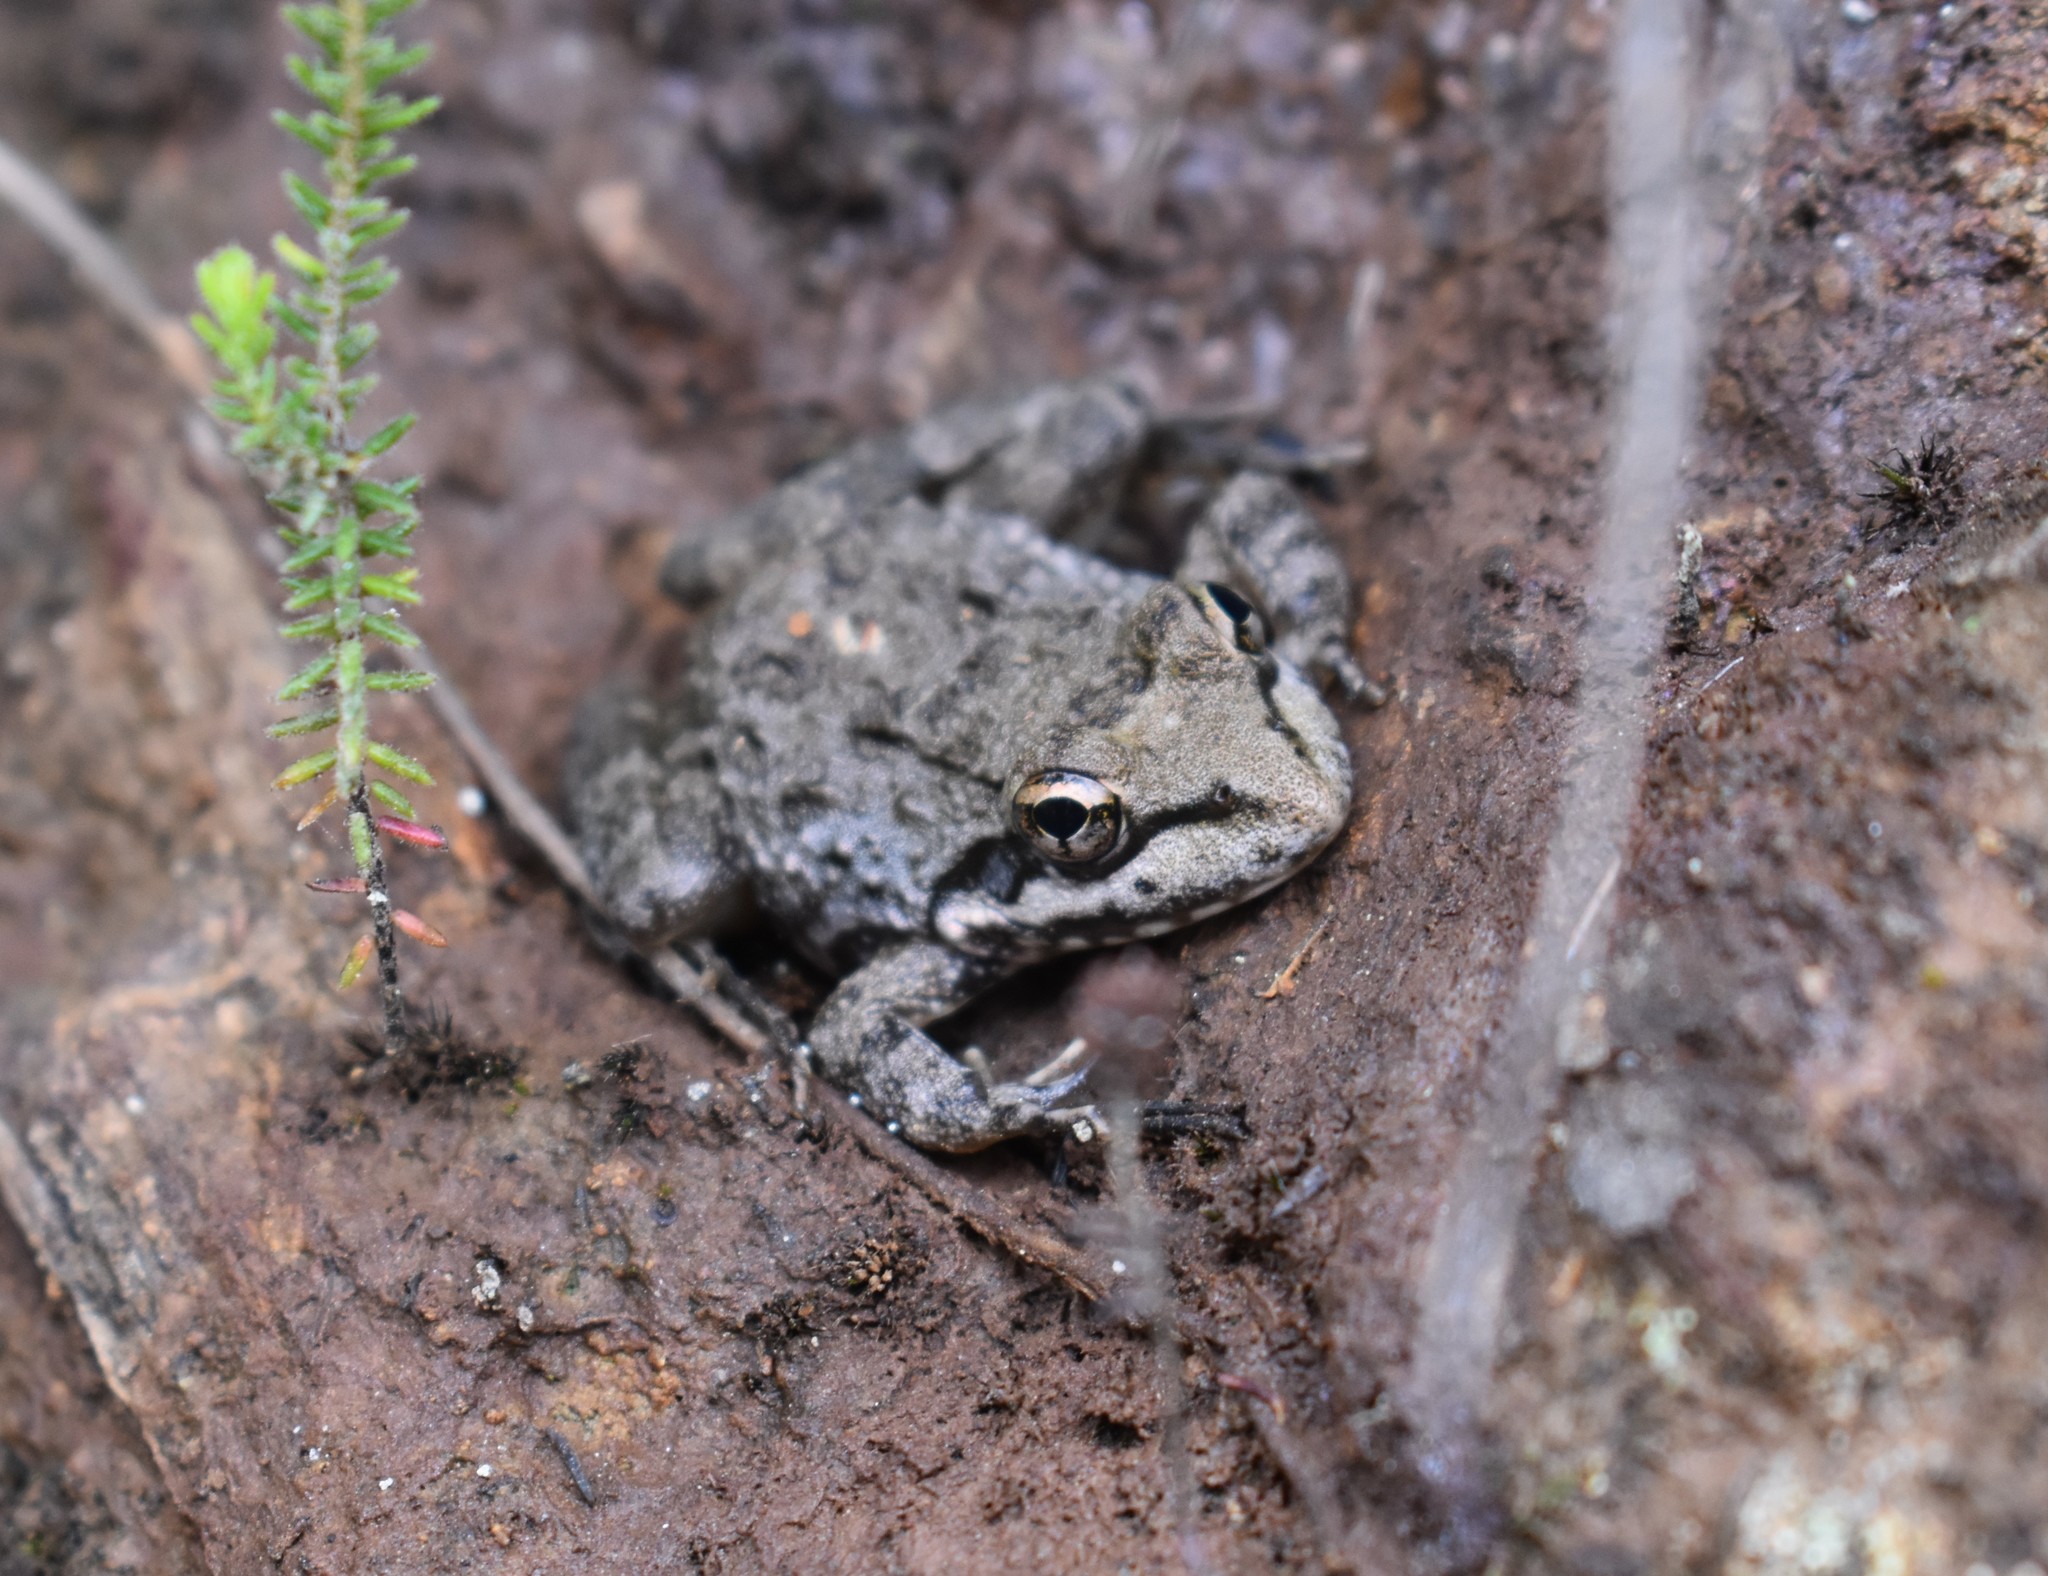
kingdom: Animalia
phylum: Chordata
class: Amphibia
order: Anura
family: Pyxicephalidae
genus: Amietia
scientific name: Amietia fuscigula
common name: Cape rana
